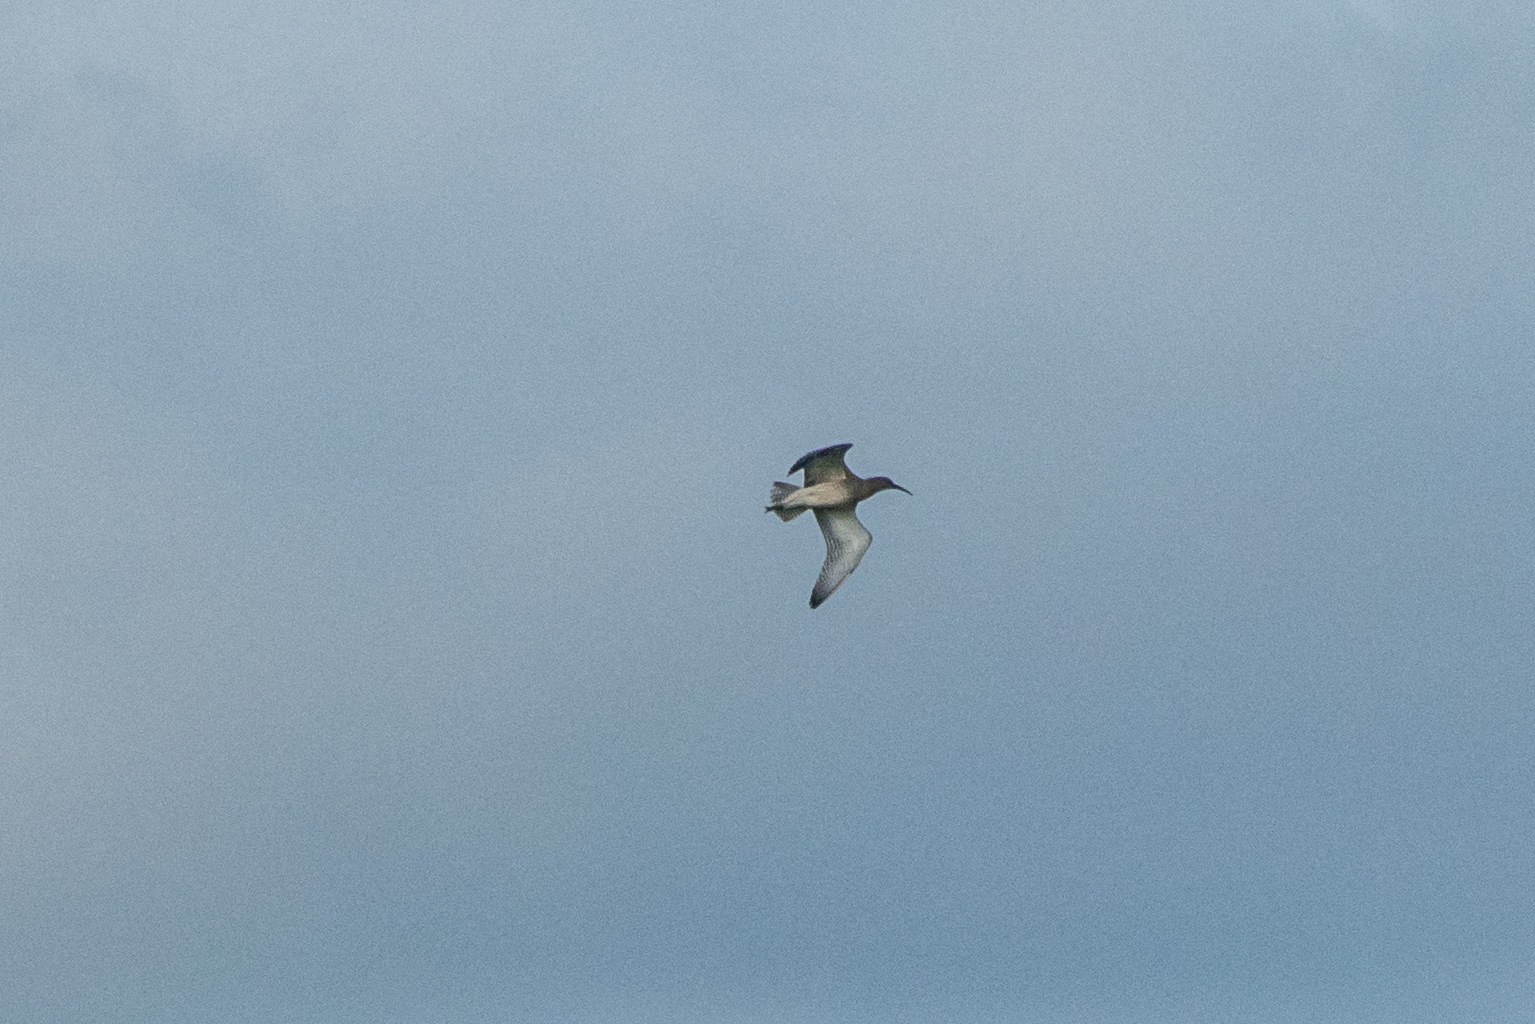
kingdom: Animalia
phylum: Chordata
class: Aves
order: Charadriiformes
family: Scolopacidae
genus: Numenius
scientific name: Numenius arquata
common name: Eurasian curlew
